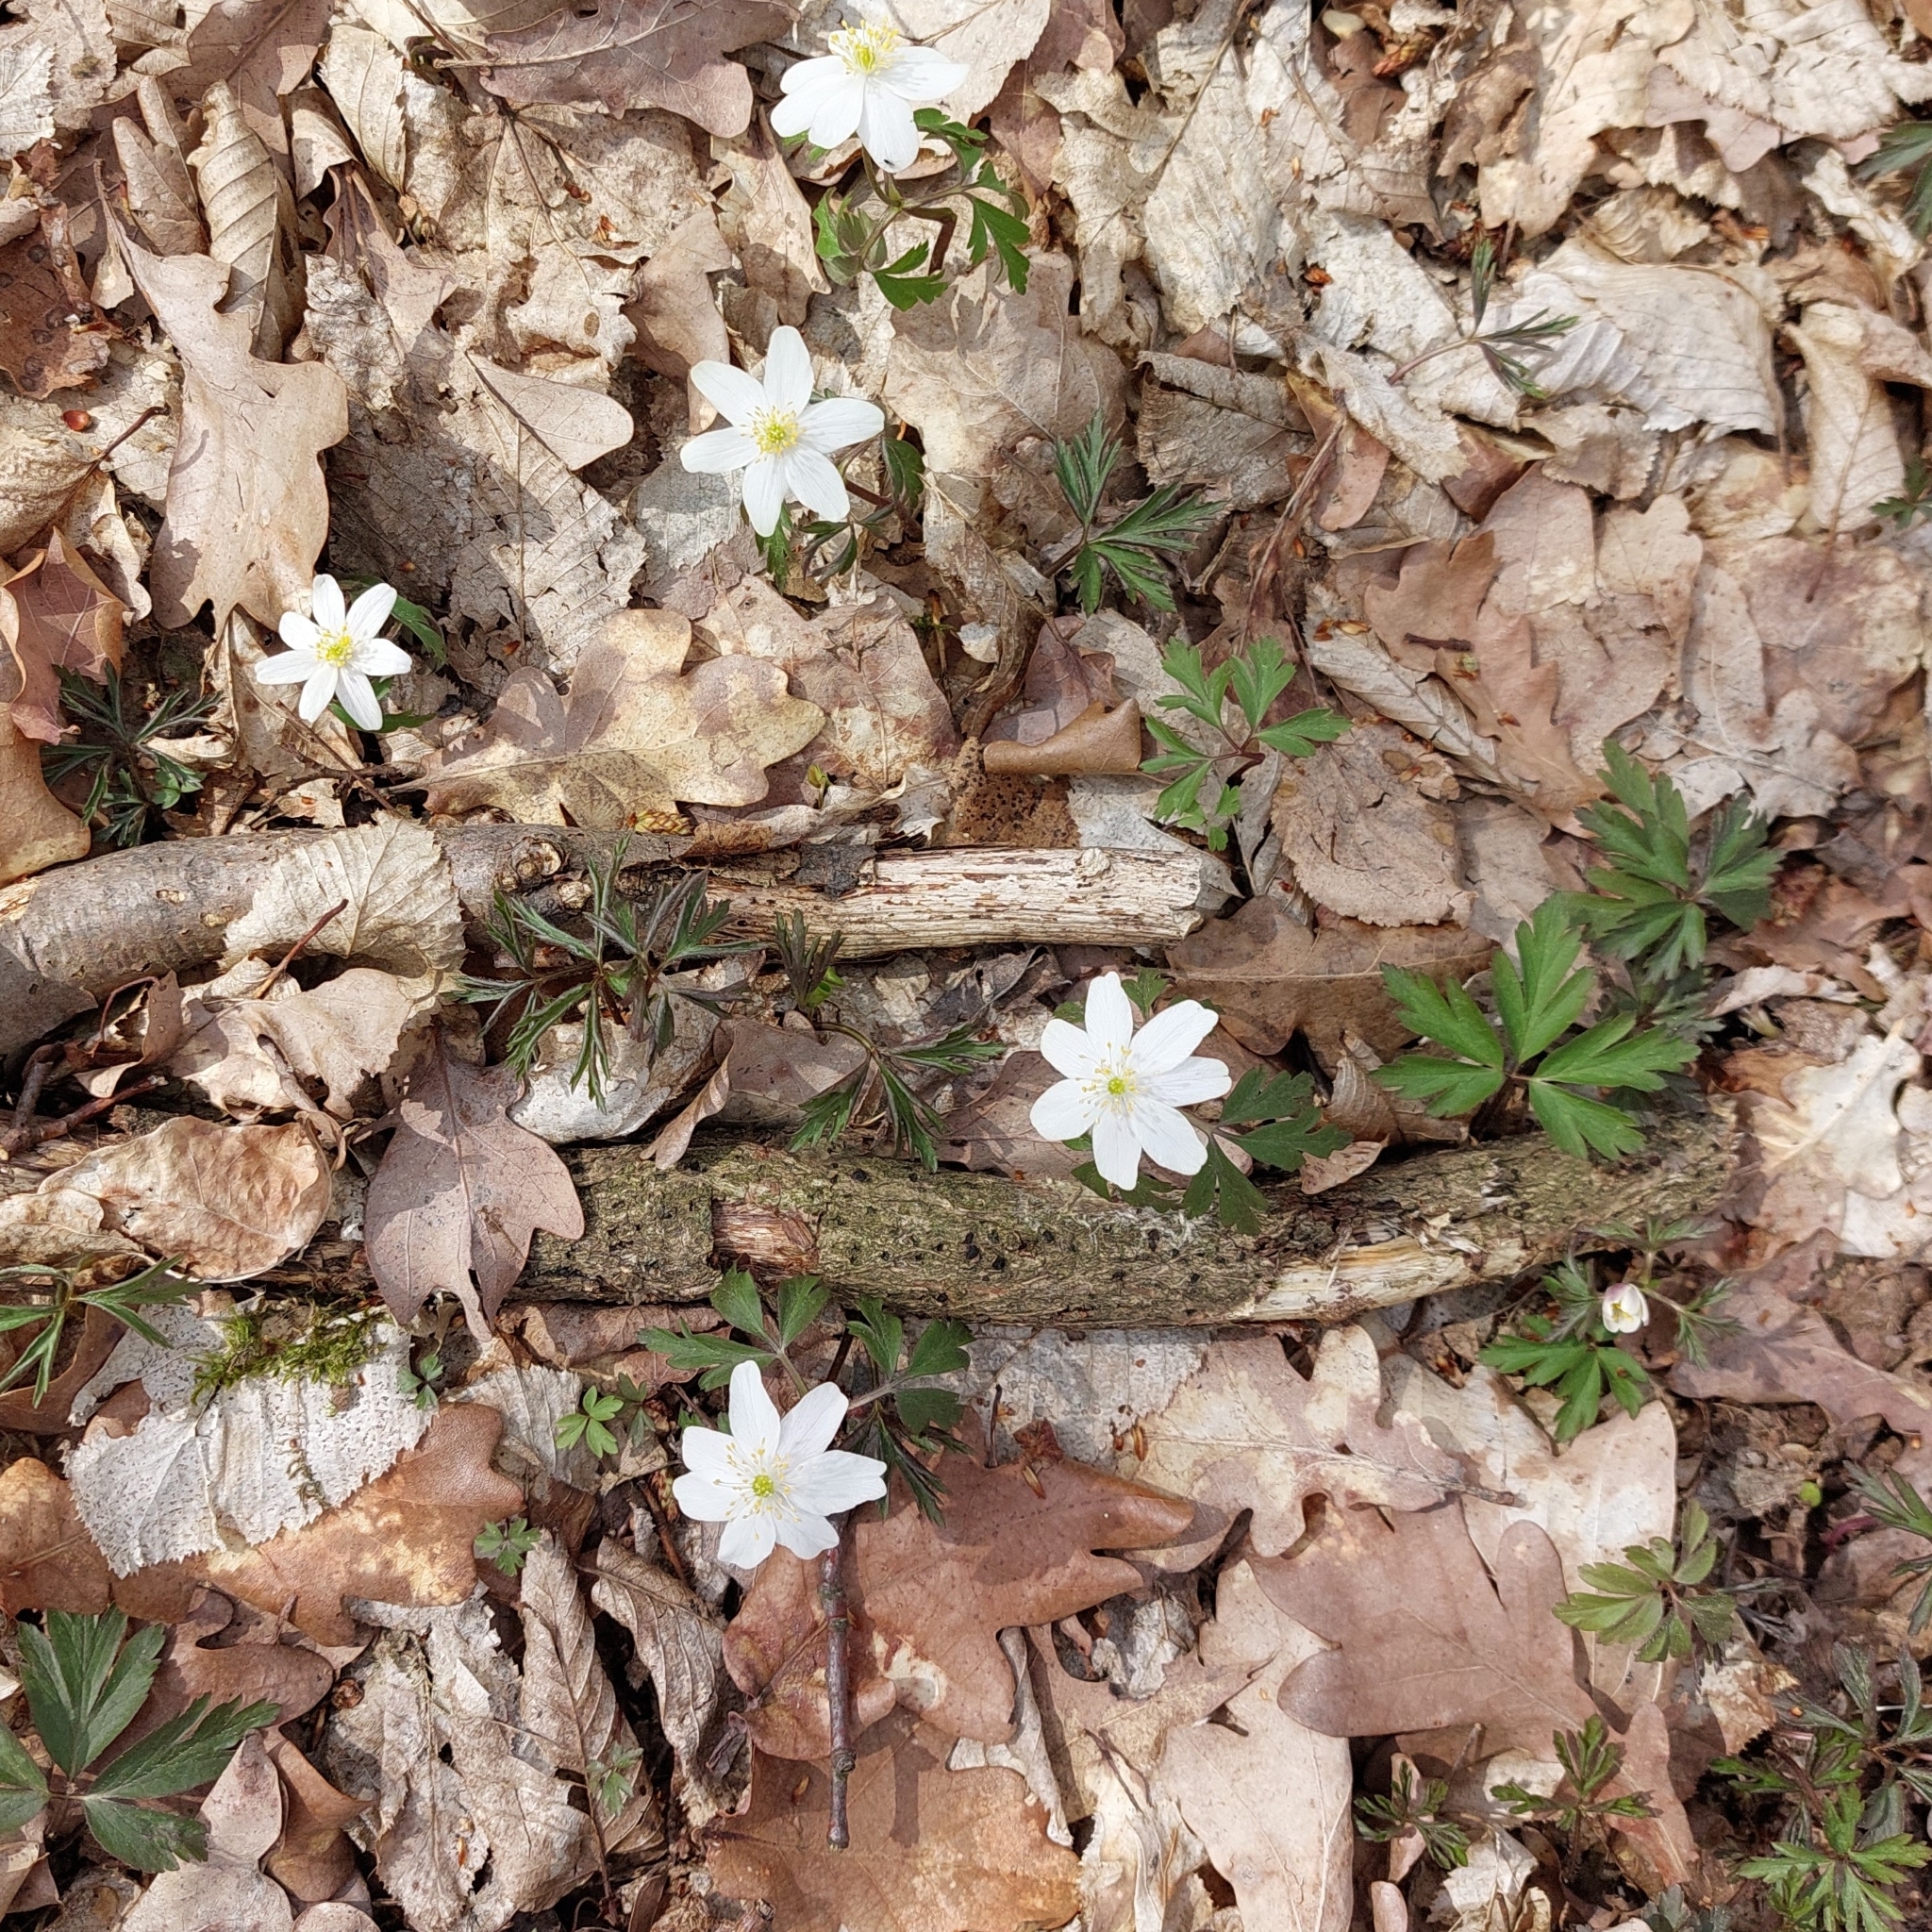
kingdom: Plantae
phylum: Tracheophyta
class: Magnoliopsida
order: Ranunculales
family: Ranunculaceae
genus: Anemone
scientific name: Anemone nemorosa
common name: Wood anemone
